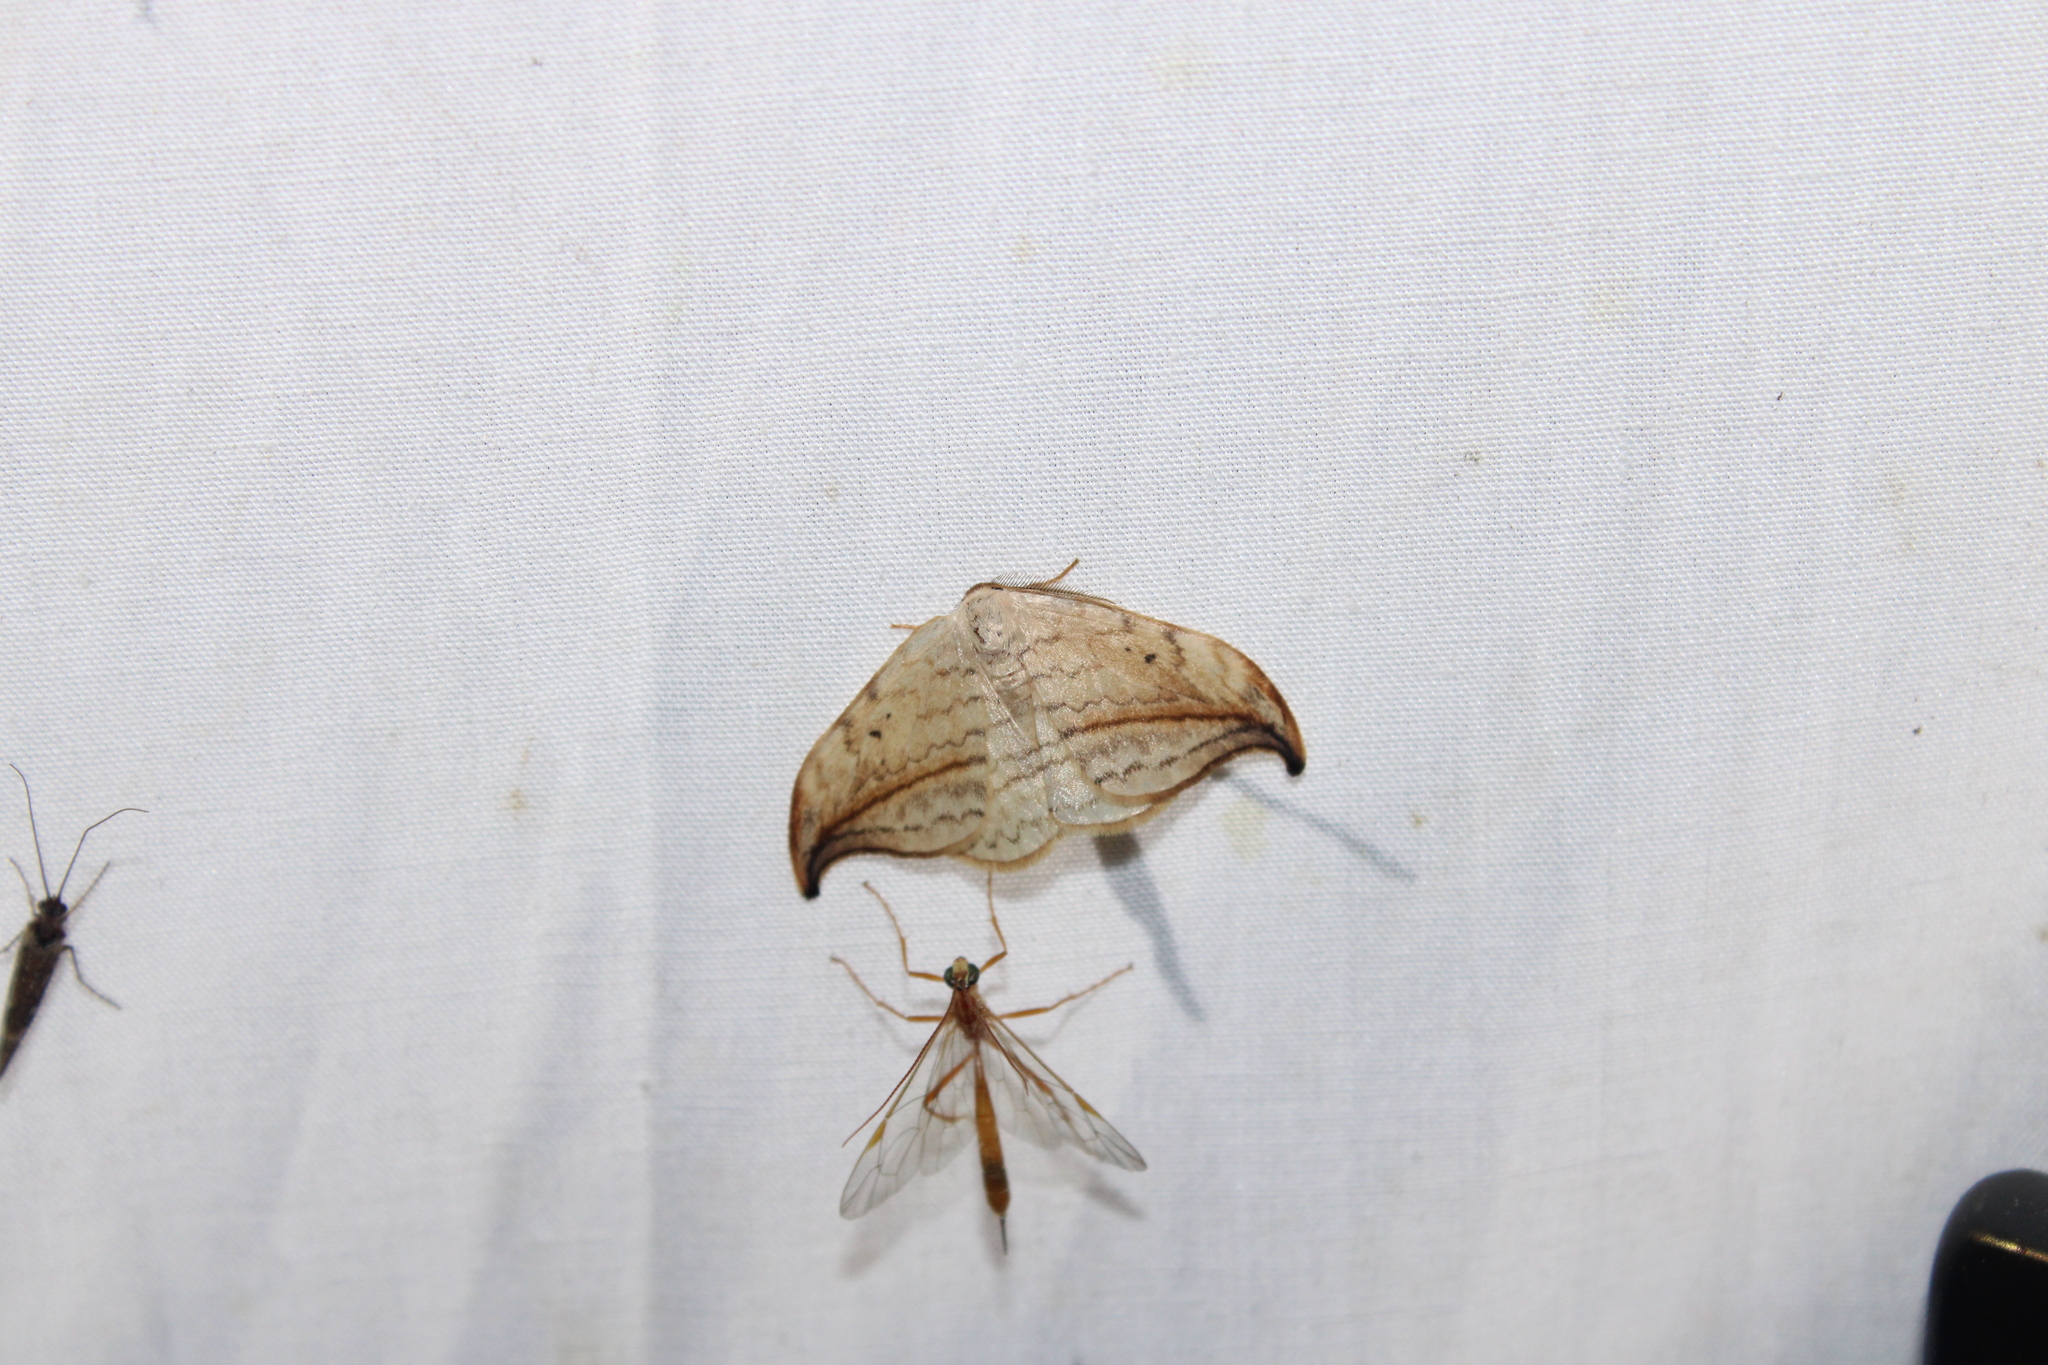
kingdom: Animalia
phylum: Arthropoda
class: Insecta
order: Lepidoptera
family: Drepanidae
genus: Drepana
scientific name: Drepana arcuata
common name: Arched hooktip moth
